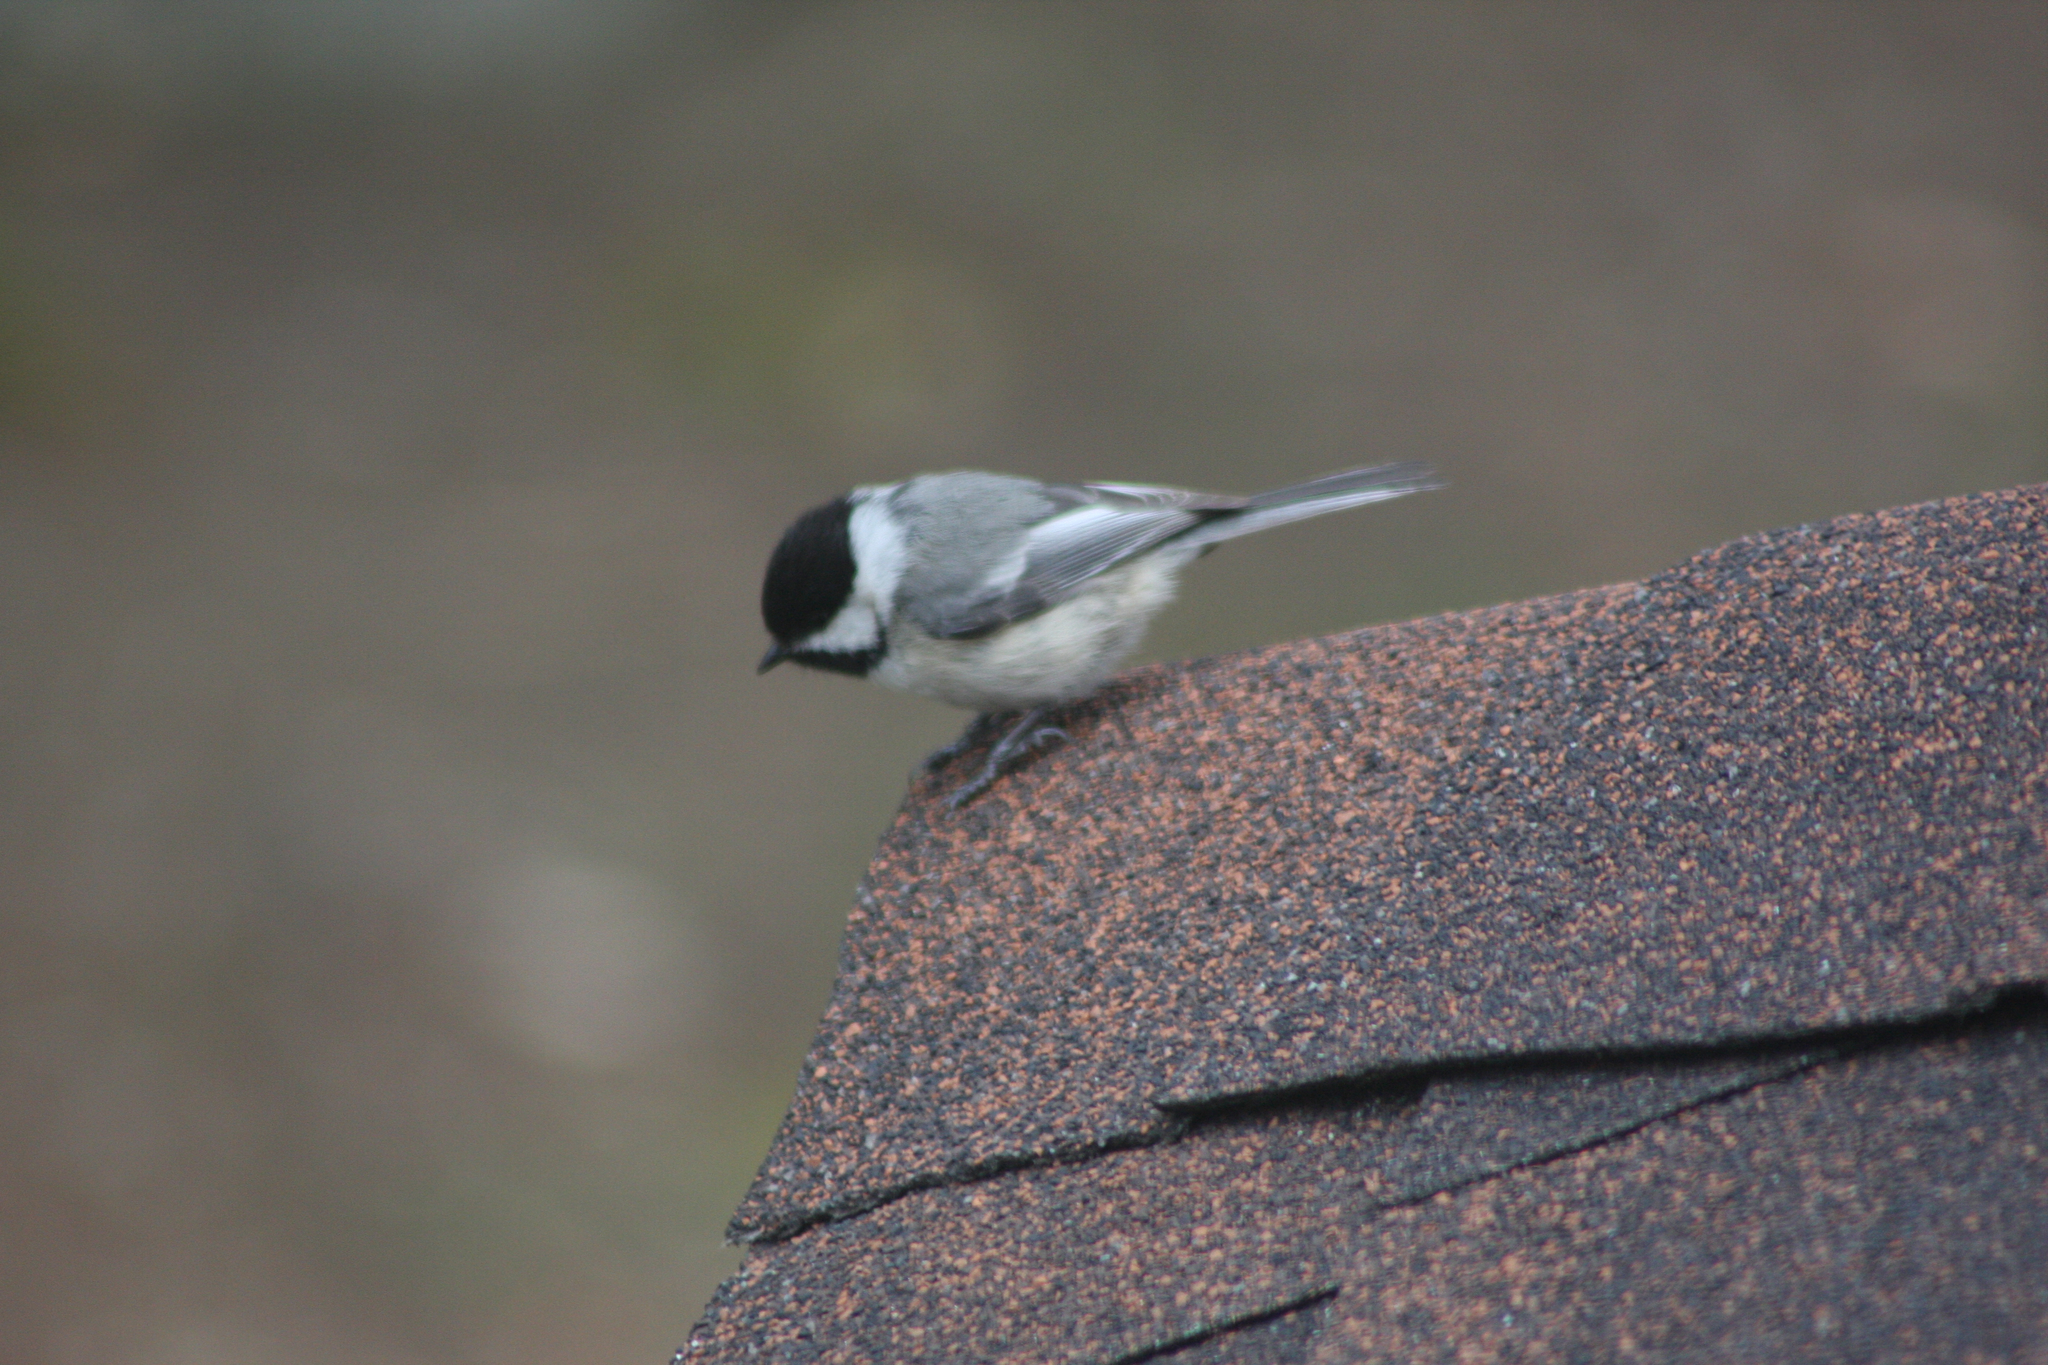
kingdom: Animalia
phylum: Chordata
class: Aves
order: Passeriformes
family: Paridae
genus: Poecile
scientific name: Poecile atricapillus
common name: Black-capped chickadee
